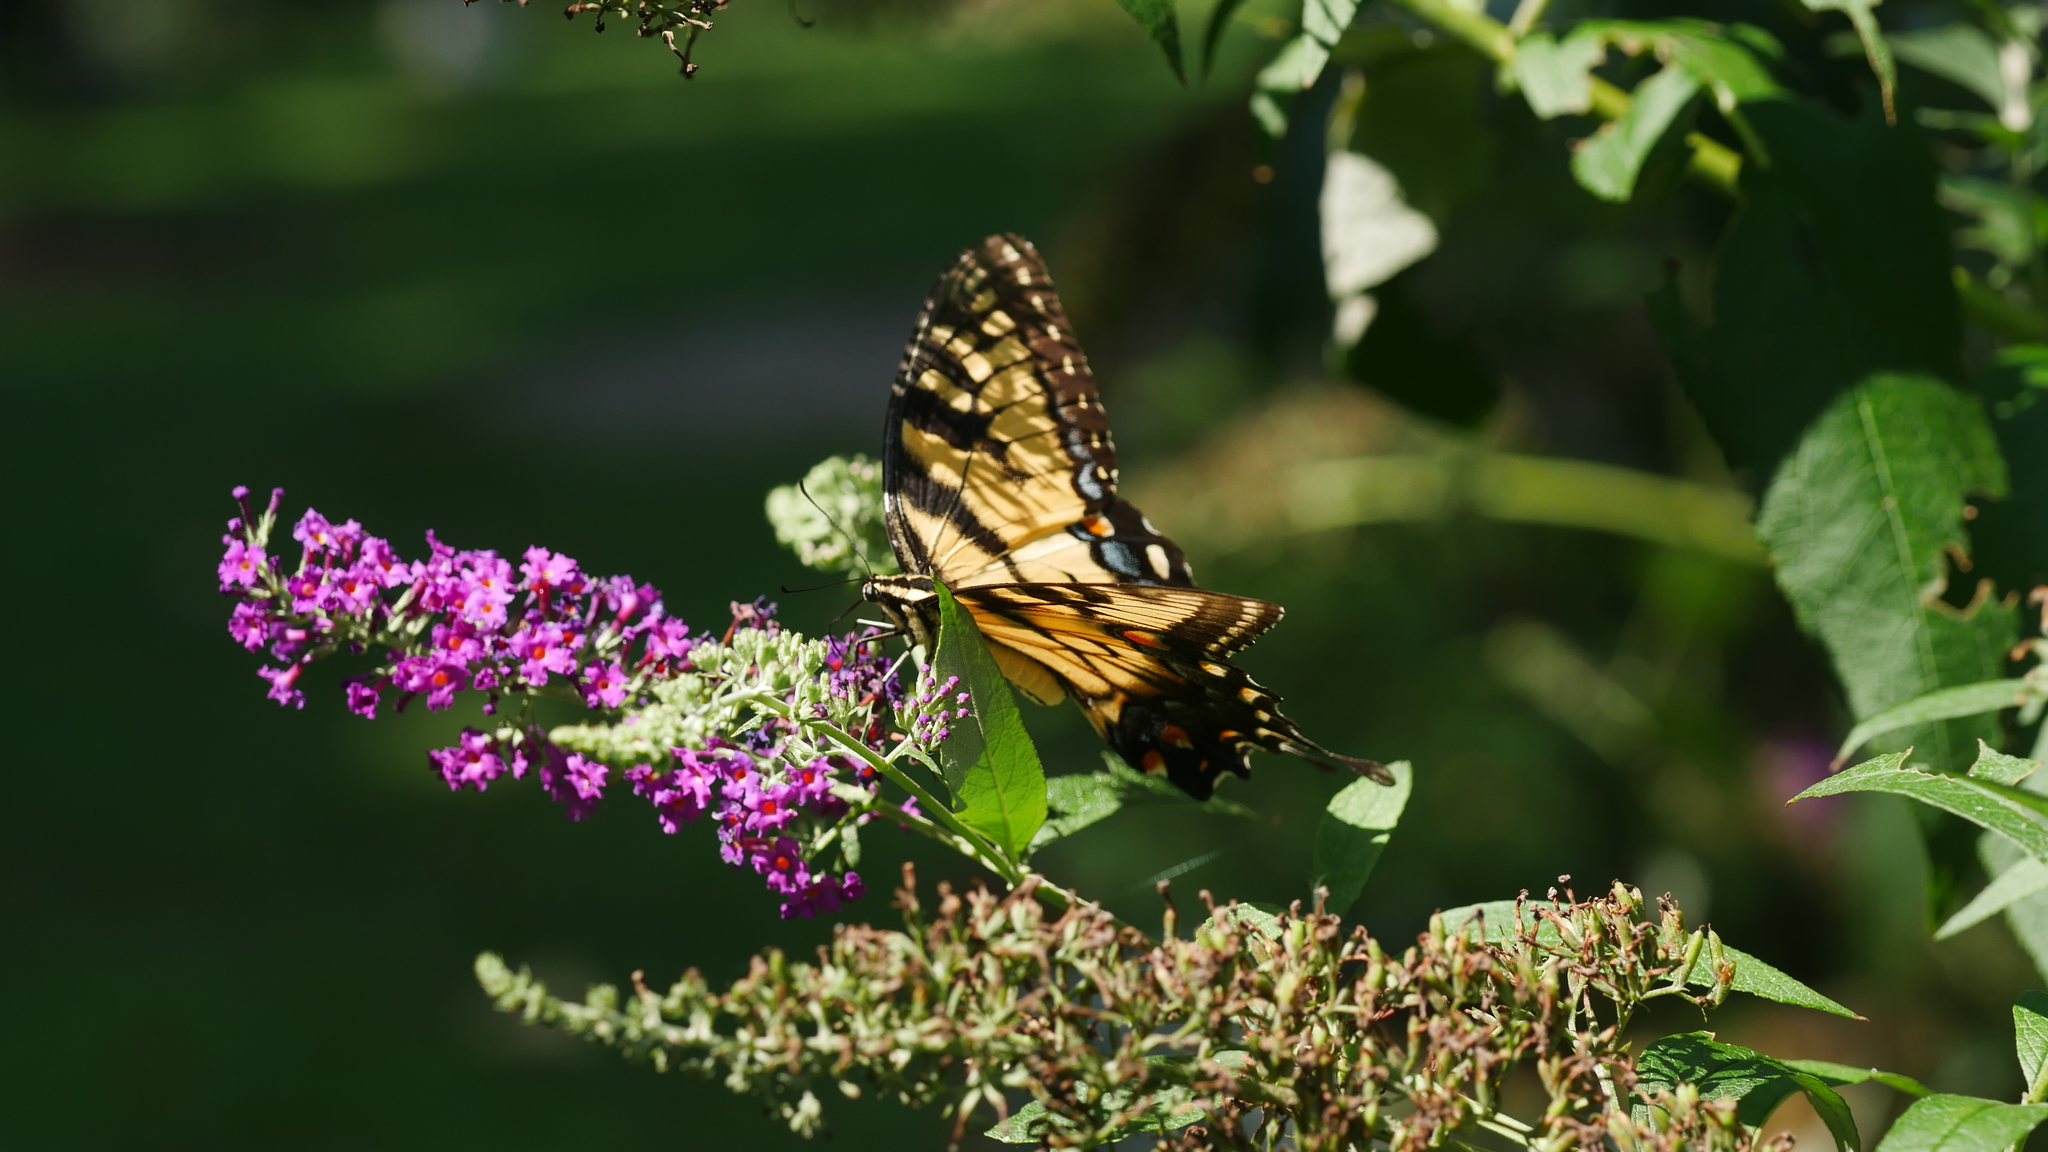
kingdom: Animalia
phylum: Arthropoda
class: Insecta
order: Lepidoptera
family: Papilionidae
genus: Papilio
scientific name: Papilio glaucus
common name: Tiger swallowtail
